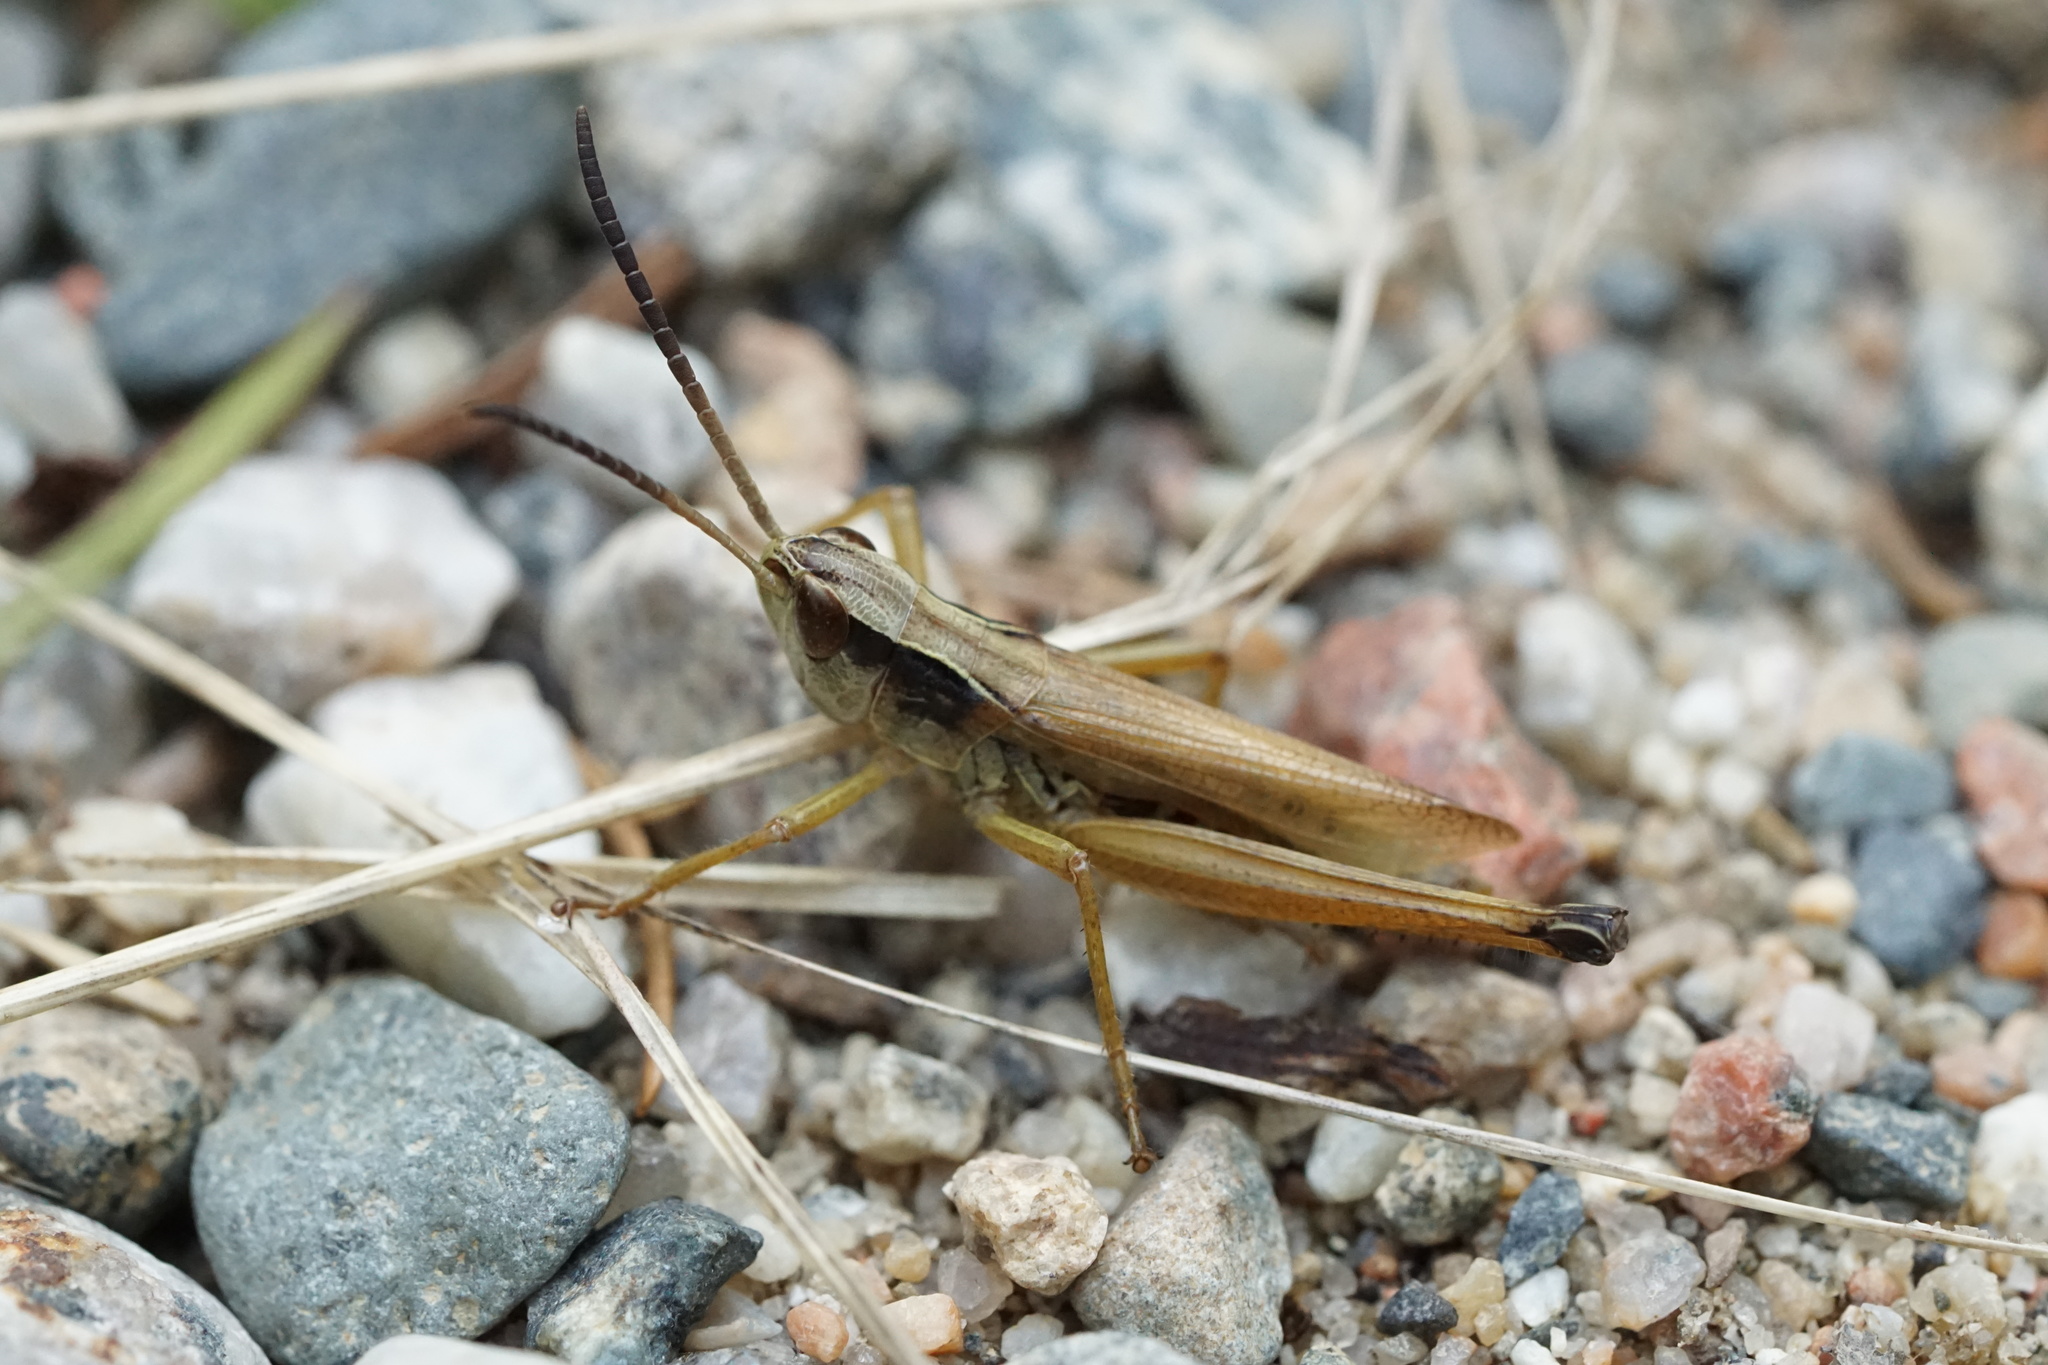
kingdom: Animalia
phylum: Arthropoda
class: Insecta
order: Orthoptera
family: Acrididae
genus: Pseudochorthippus
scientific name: Pseudochorthippus curtipennis
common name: Marsh meadow grasshopper
